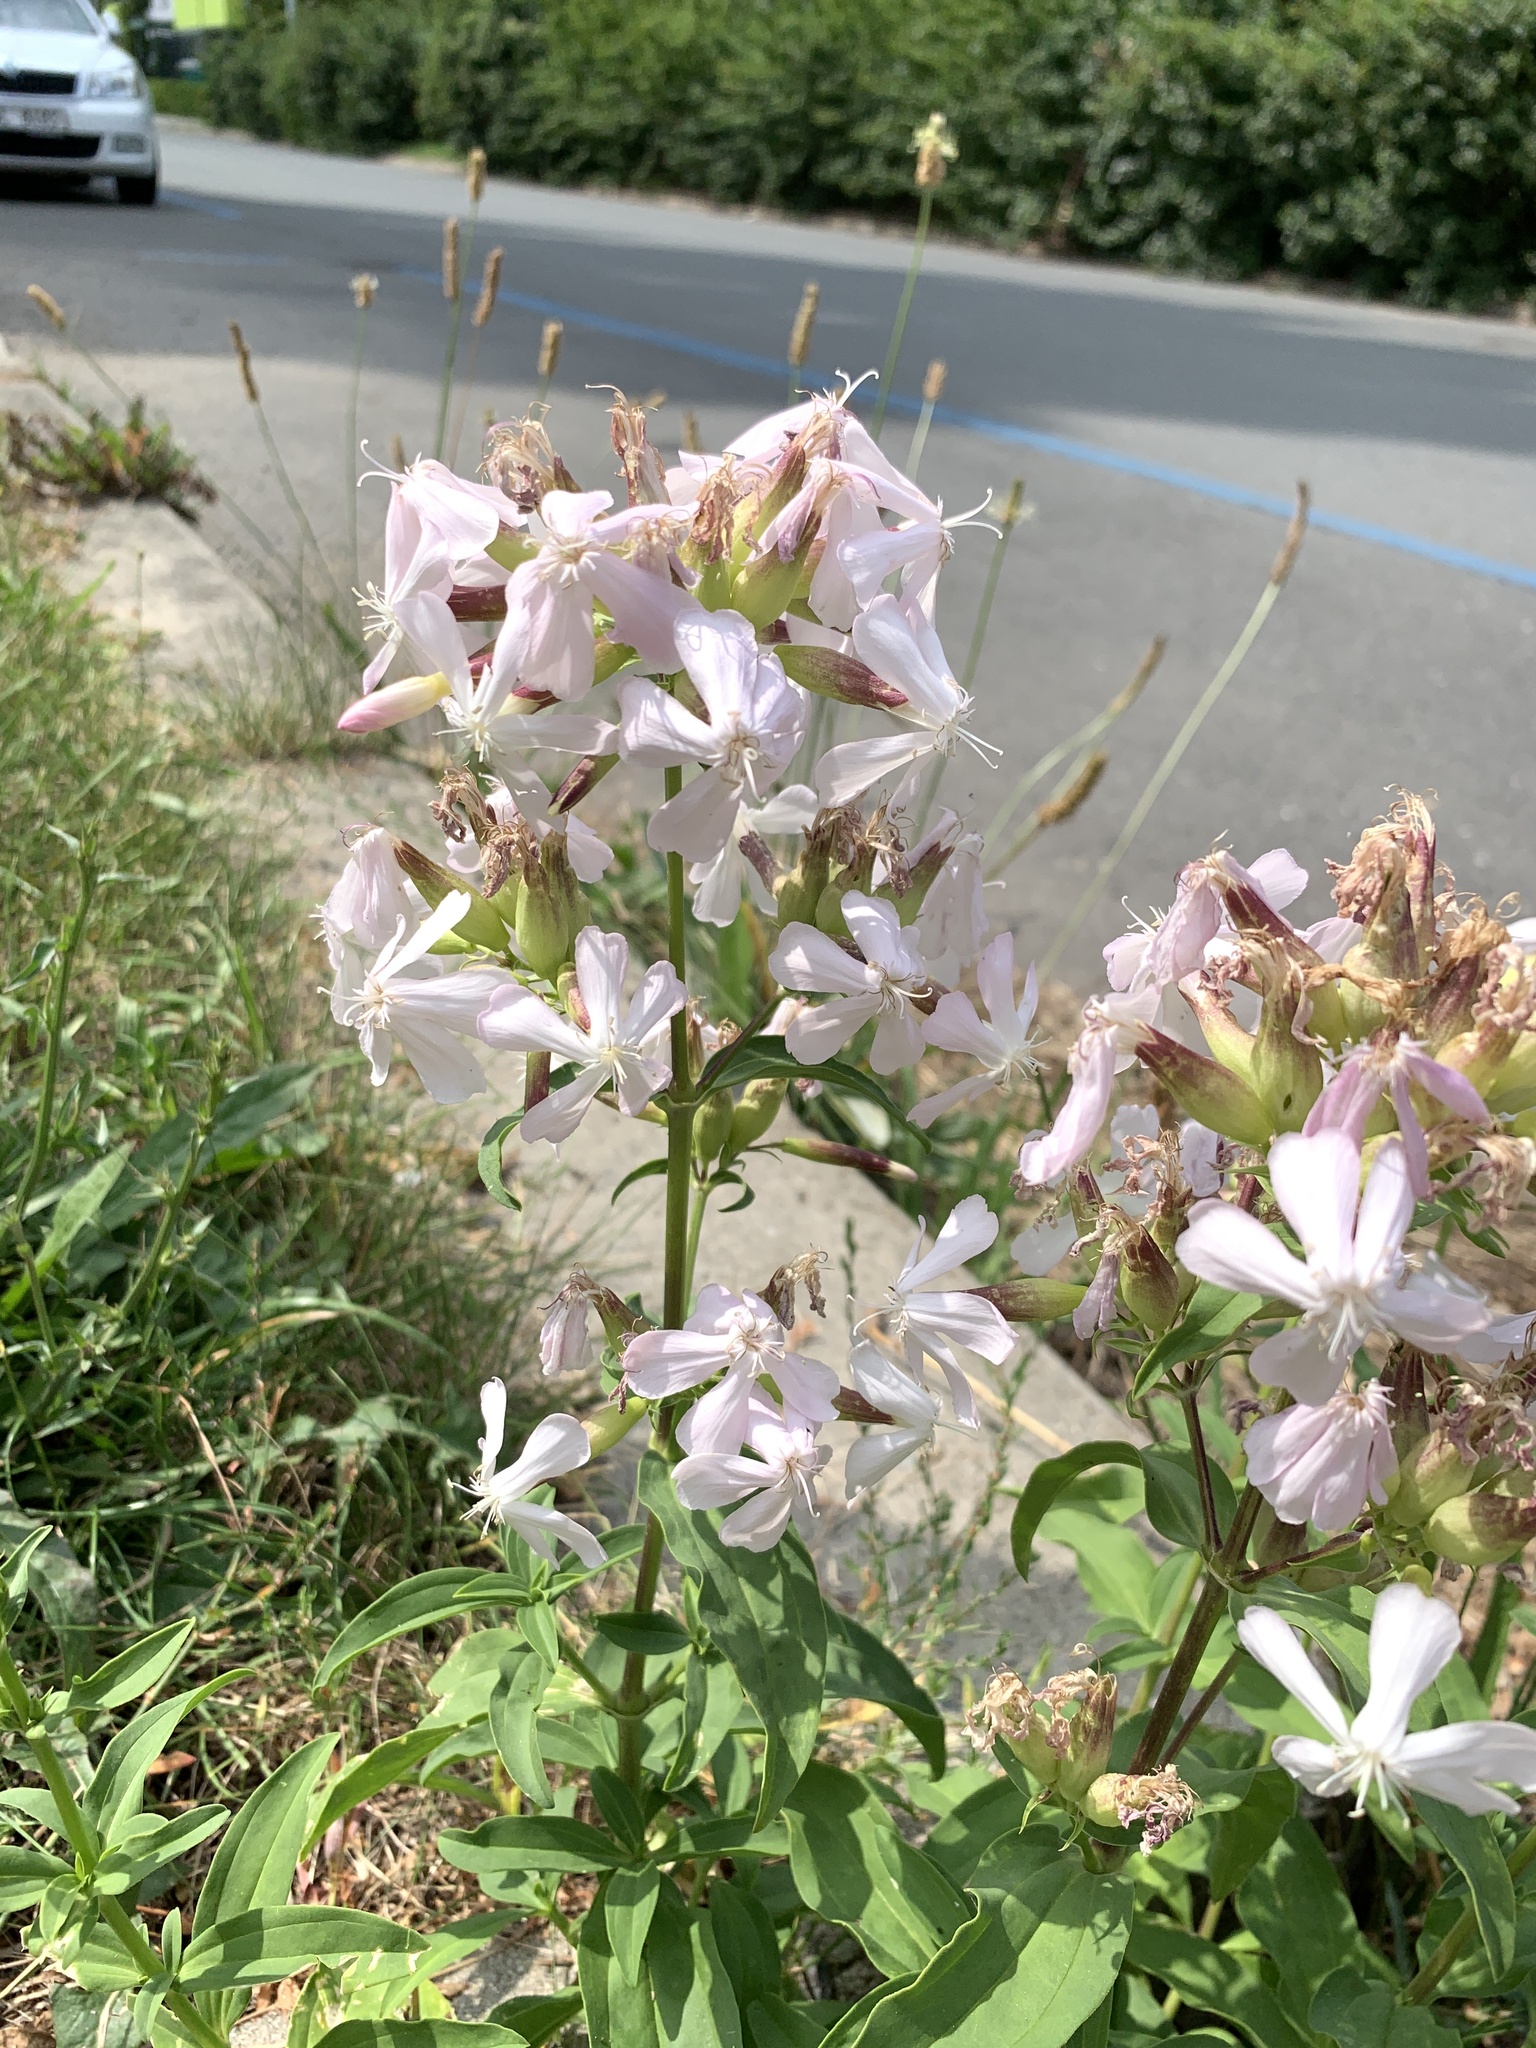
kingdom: Plantae
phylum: Tracheophyta
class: Magnoliopsida
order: Caryophyllales
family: Caryophyllaceae
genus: Saponaria
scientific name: Saponaria officinalis
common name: Soapwort
